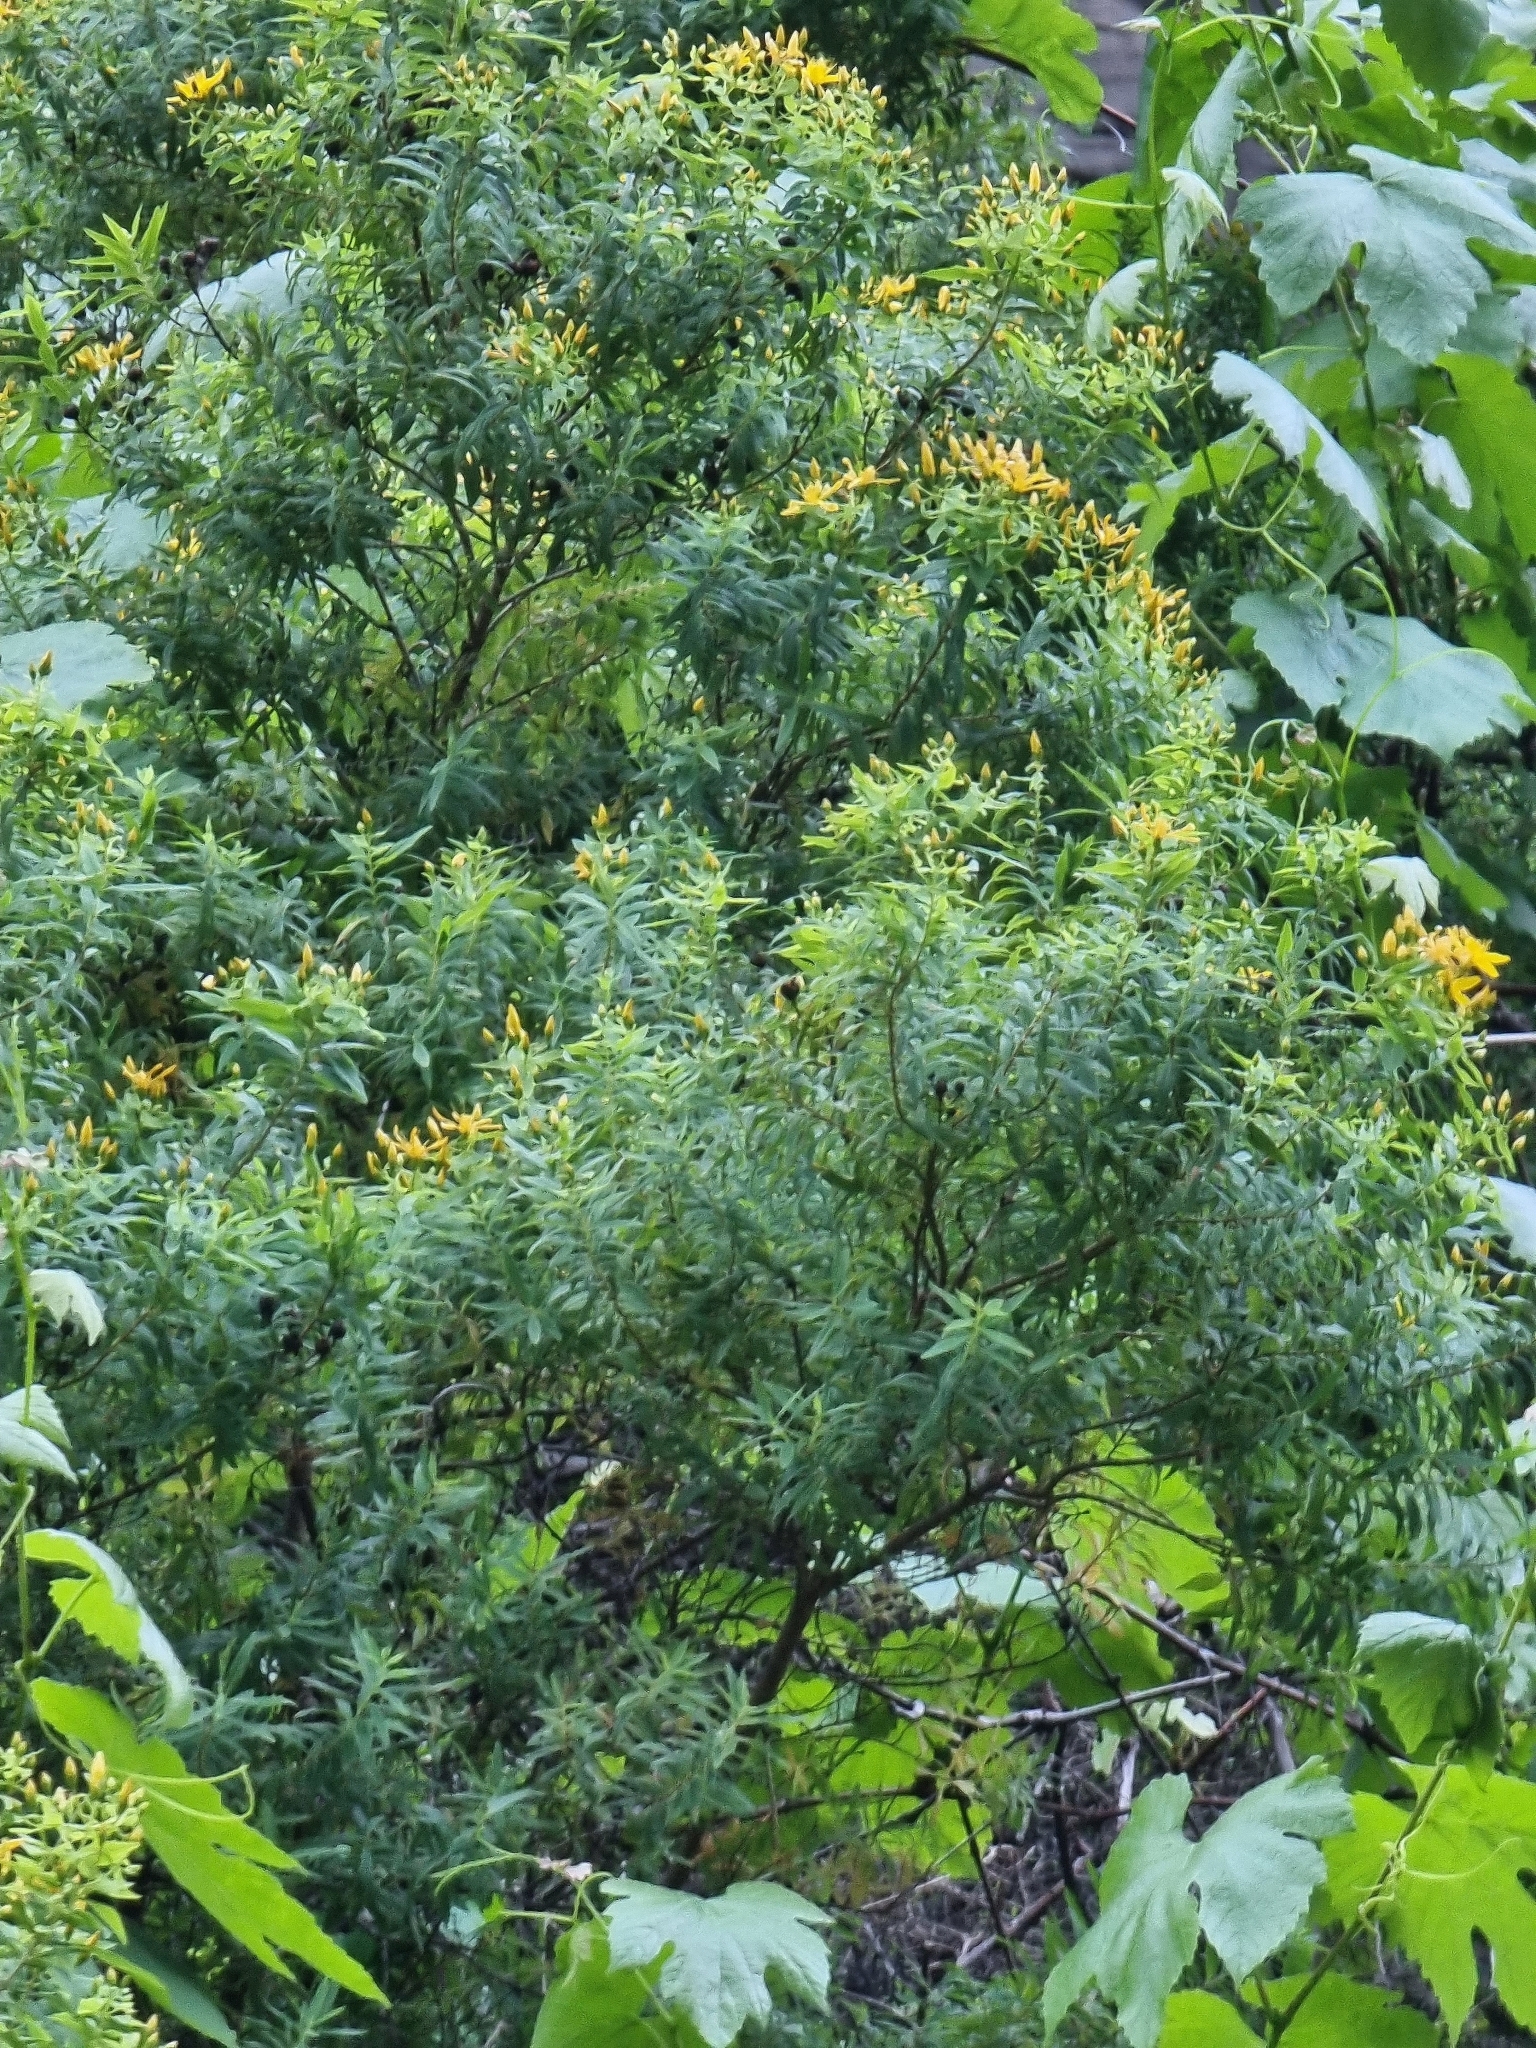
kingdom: Plantae
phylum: Tracheophyta
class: Magnoliopsida
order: Malpighiales
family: Hypericaceae
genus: Hypericum
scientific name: Hypericum canariense
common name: Canary island st. johnswort
